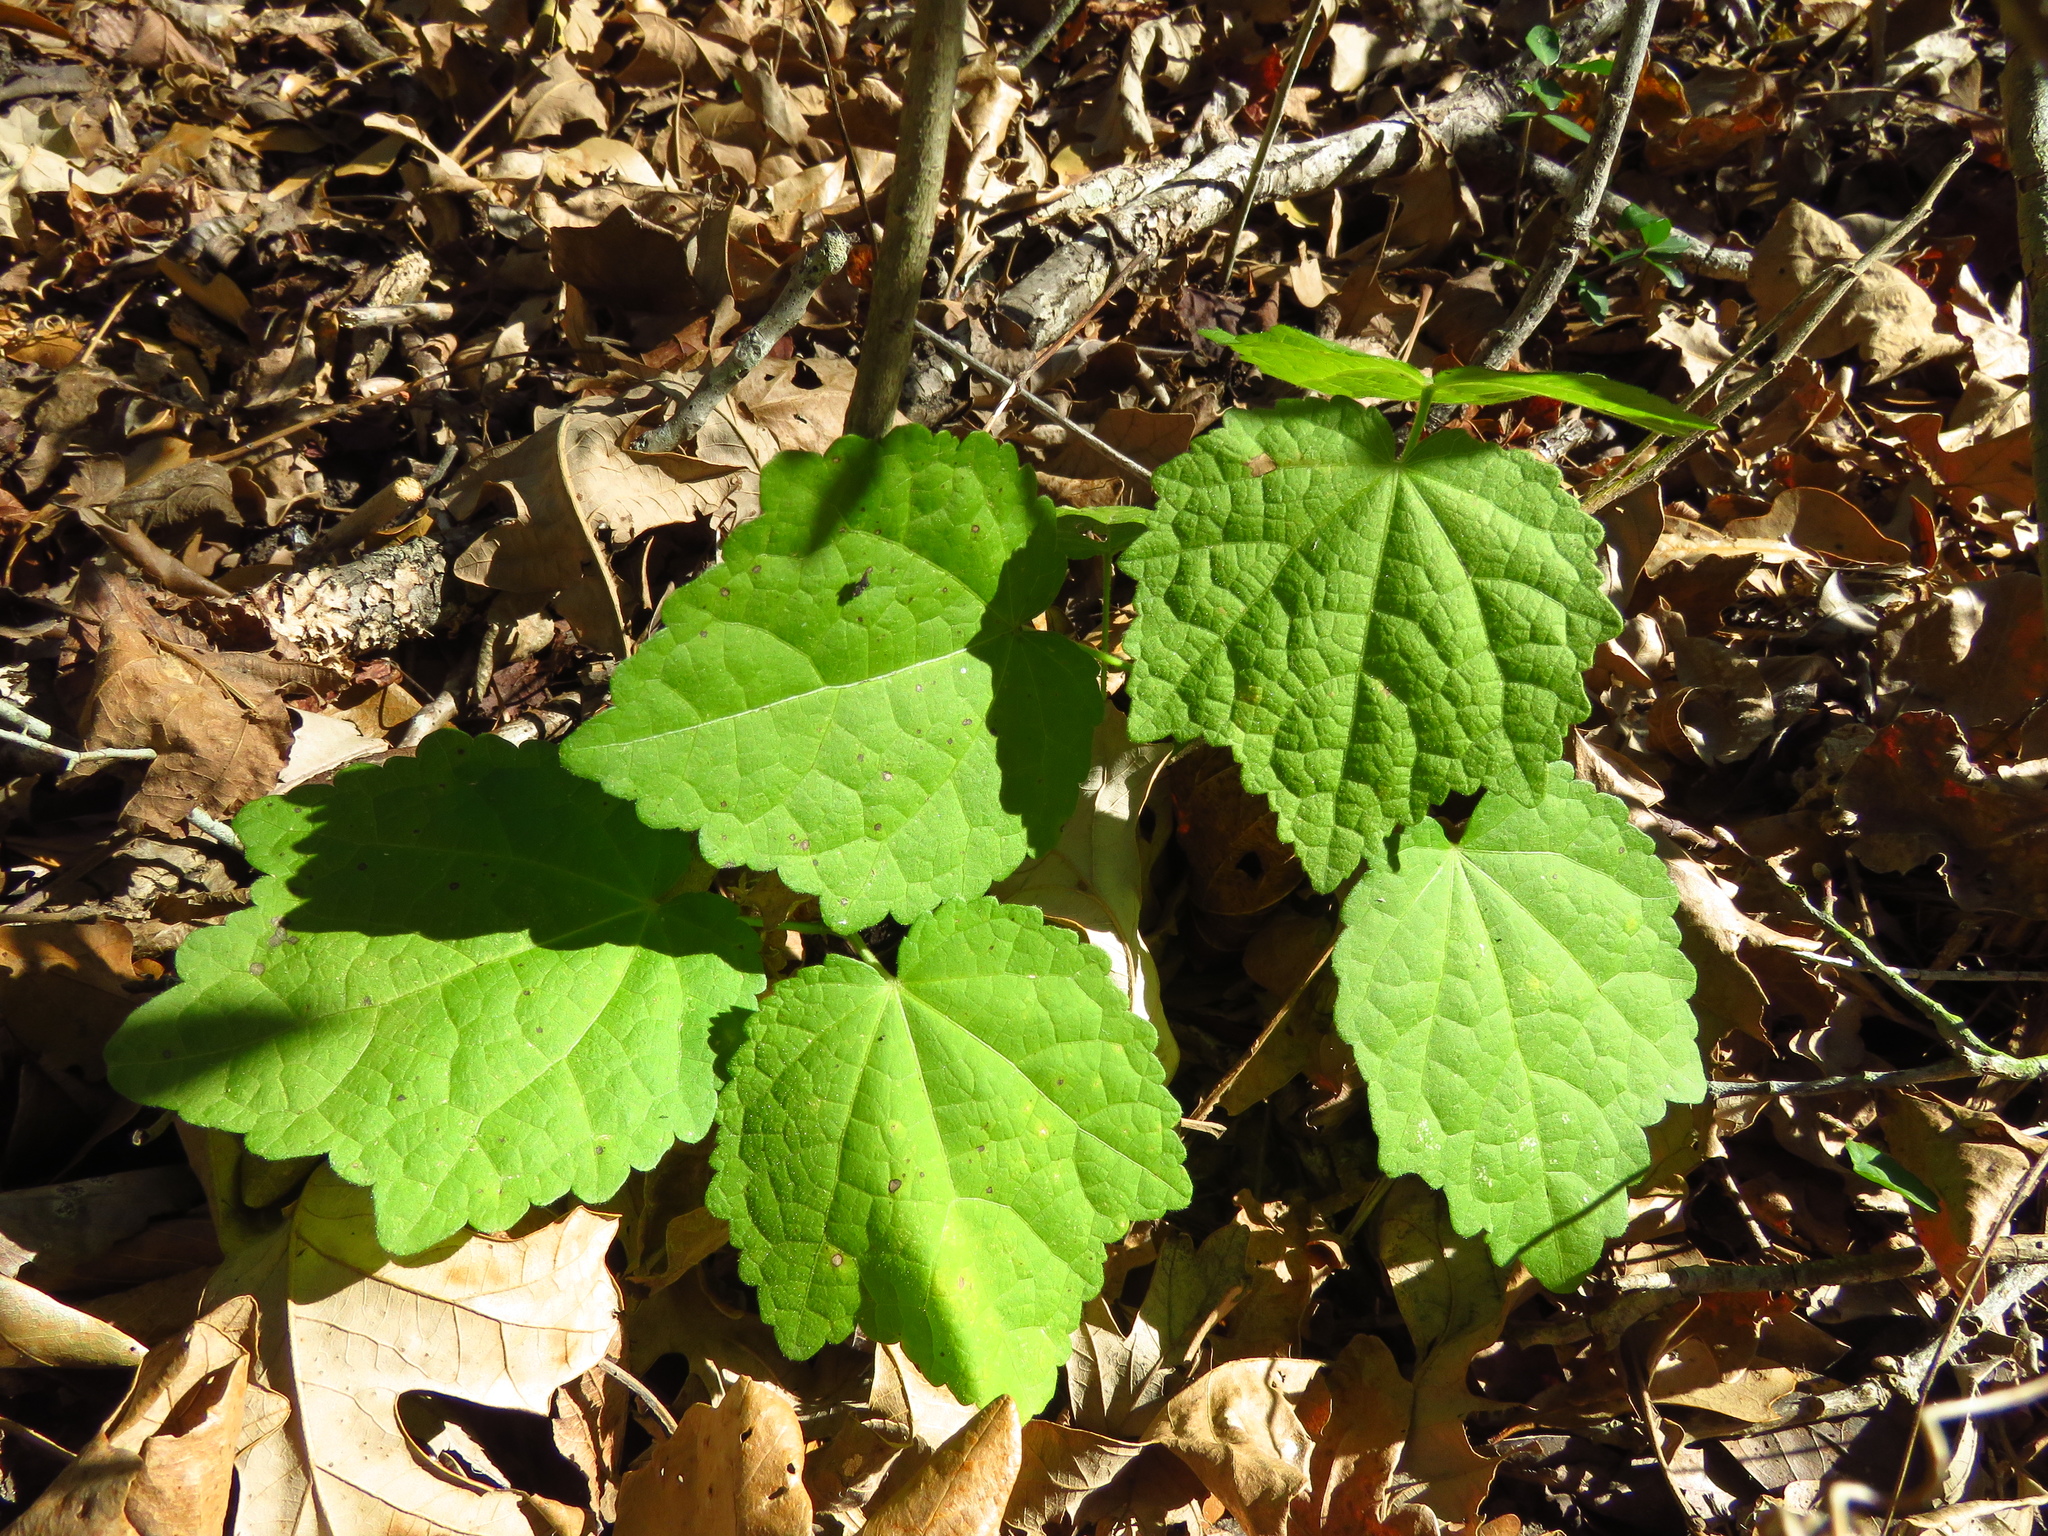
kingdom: Plantae
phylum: Tracheophyta
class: Magnoliopsida
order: Malvales
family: Malvaceae
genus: Malvaviscus
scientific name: Malvaviscus arboreus
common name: Wax mallow
